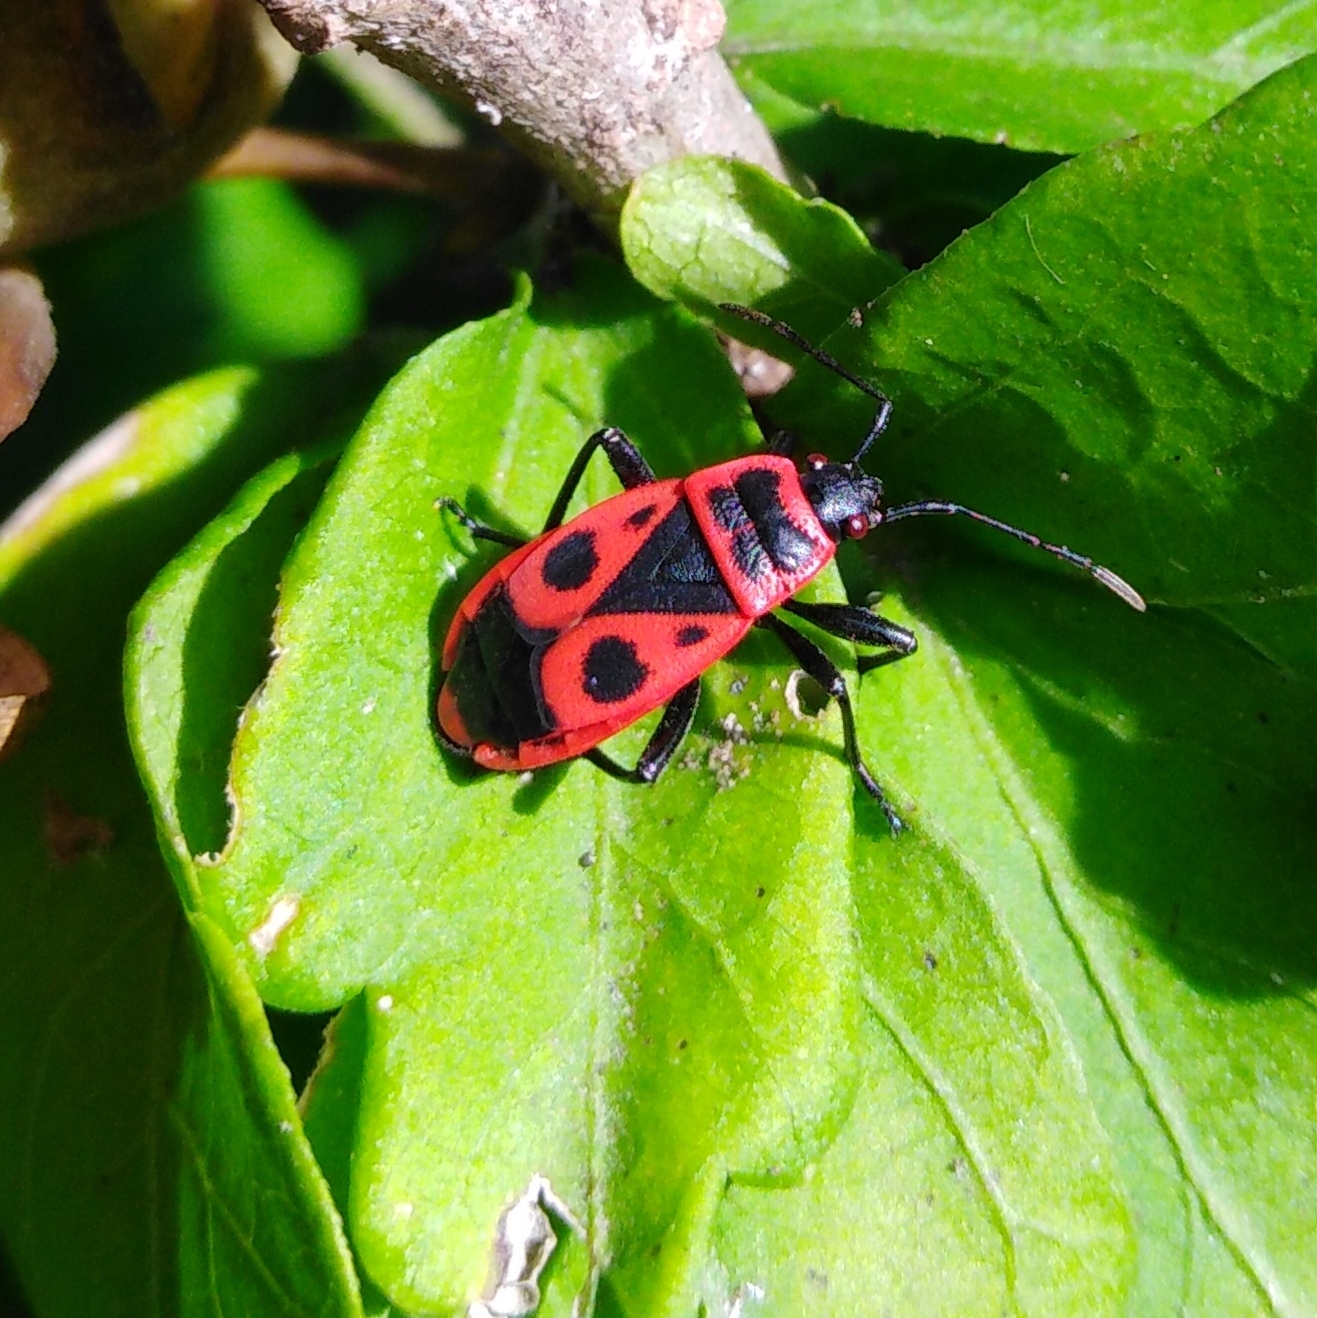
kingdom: Animalia
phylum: Arthropoda
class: Insecta
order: Hemiptera
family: Pyrrhocoridae
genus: Pyrrhocoris
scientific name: Pyrrhocoris apterus
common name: Firebug
